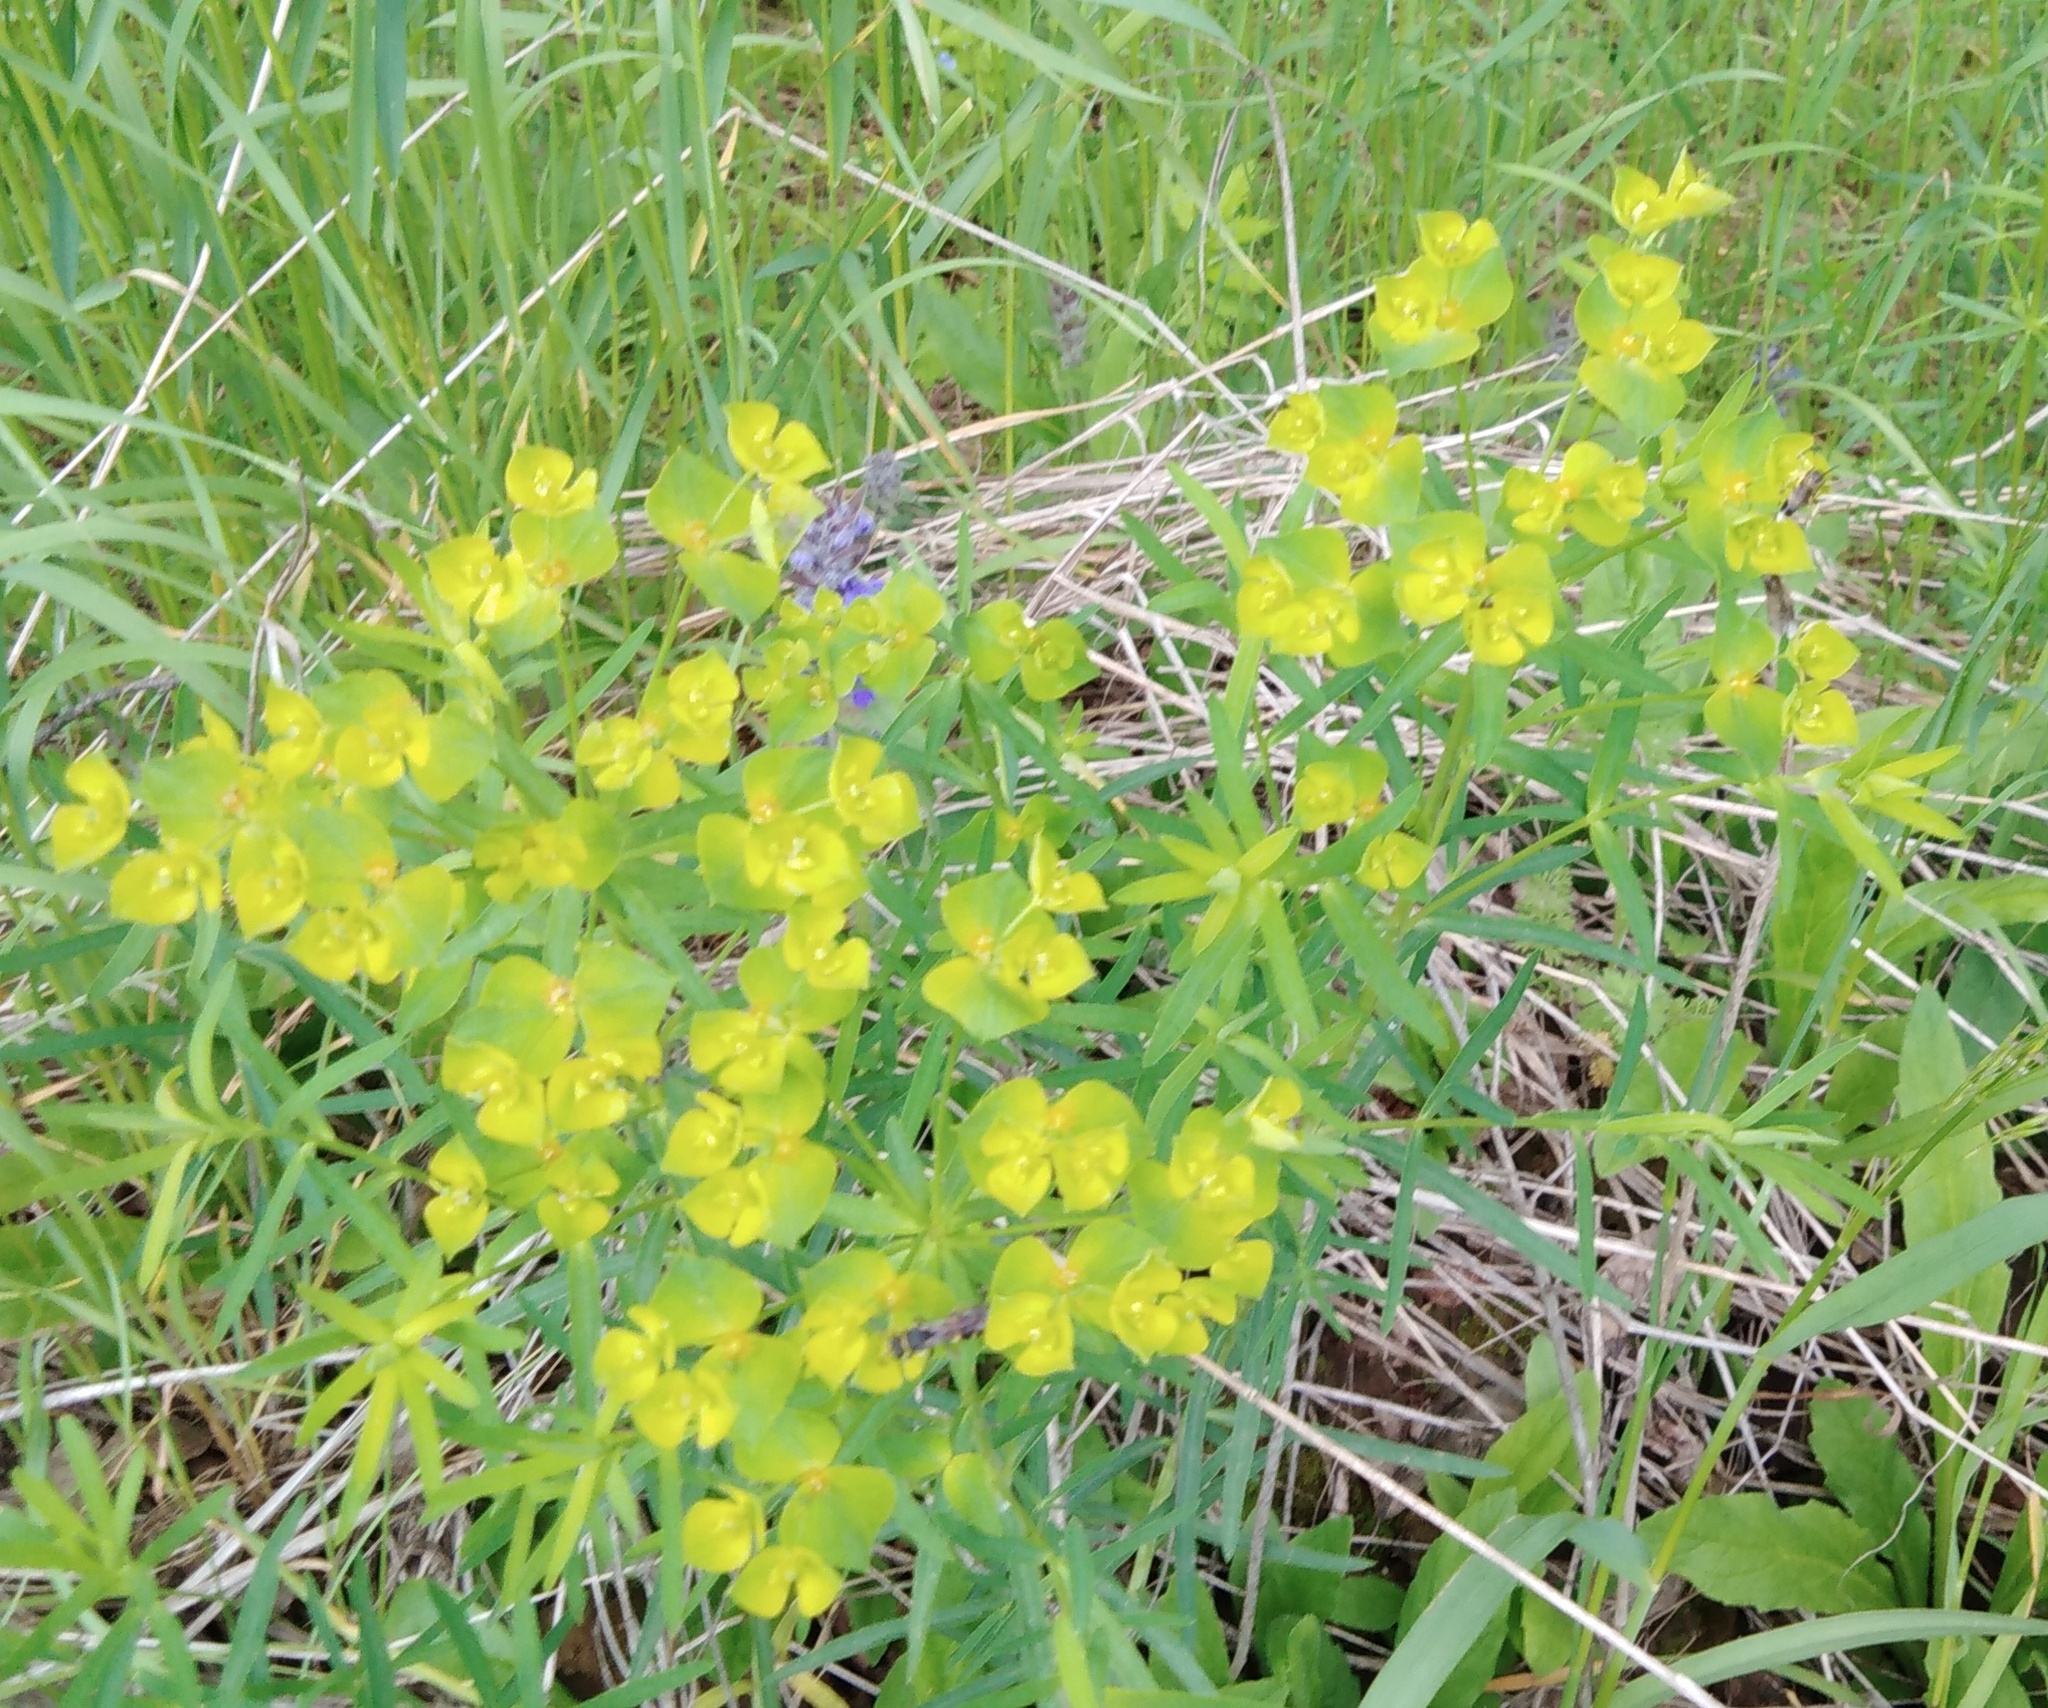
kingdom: Plantae
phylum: Tracheophyta
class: Magnoliopsida
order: Malpighiales
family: Euphorbiaceae
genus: Euphorbia
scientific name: Euphorbia virgata
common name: Leafy spurge
